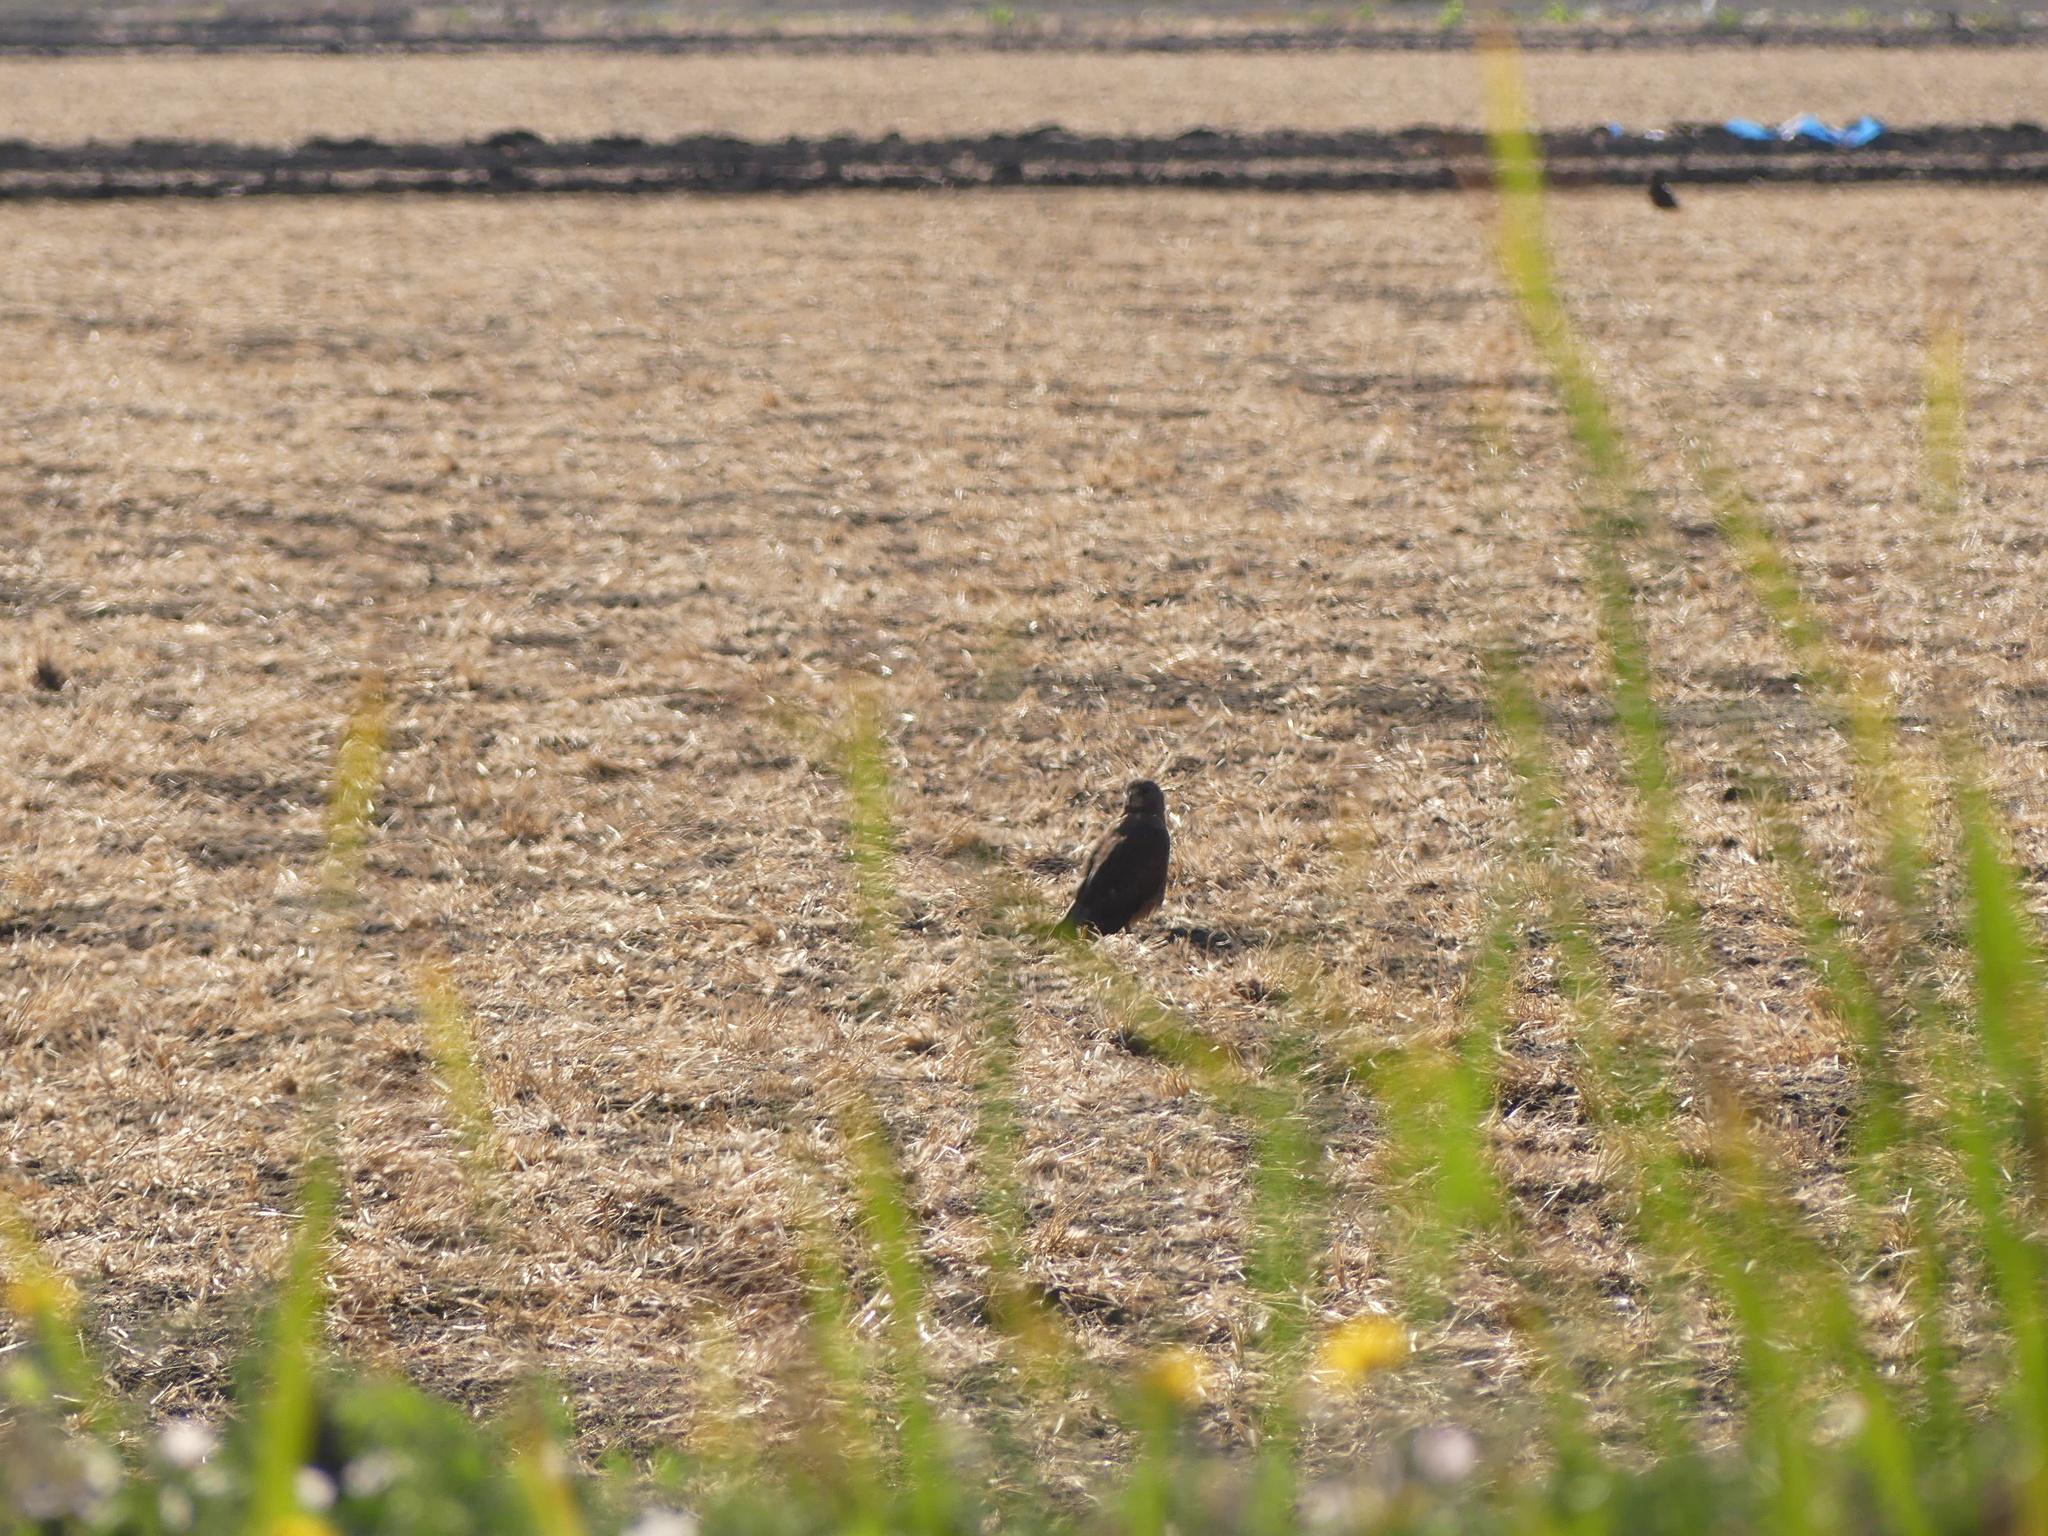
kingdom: Animalia
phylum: Chordata
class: Aves
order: Accipitriformes
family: Accipitridae
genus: Buteo
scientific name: Buteo swainsoni
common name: Swainson's hawk
